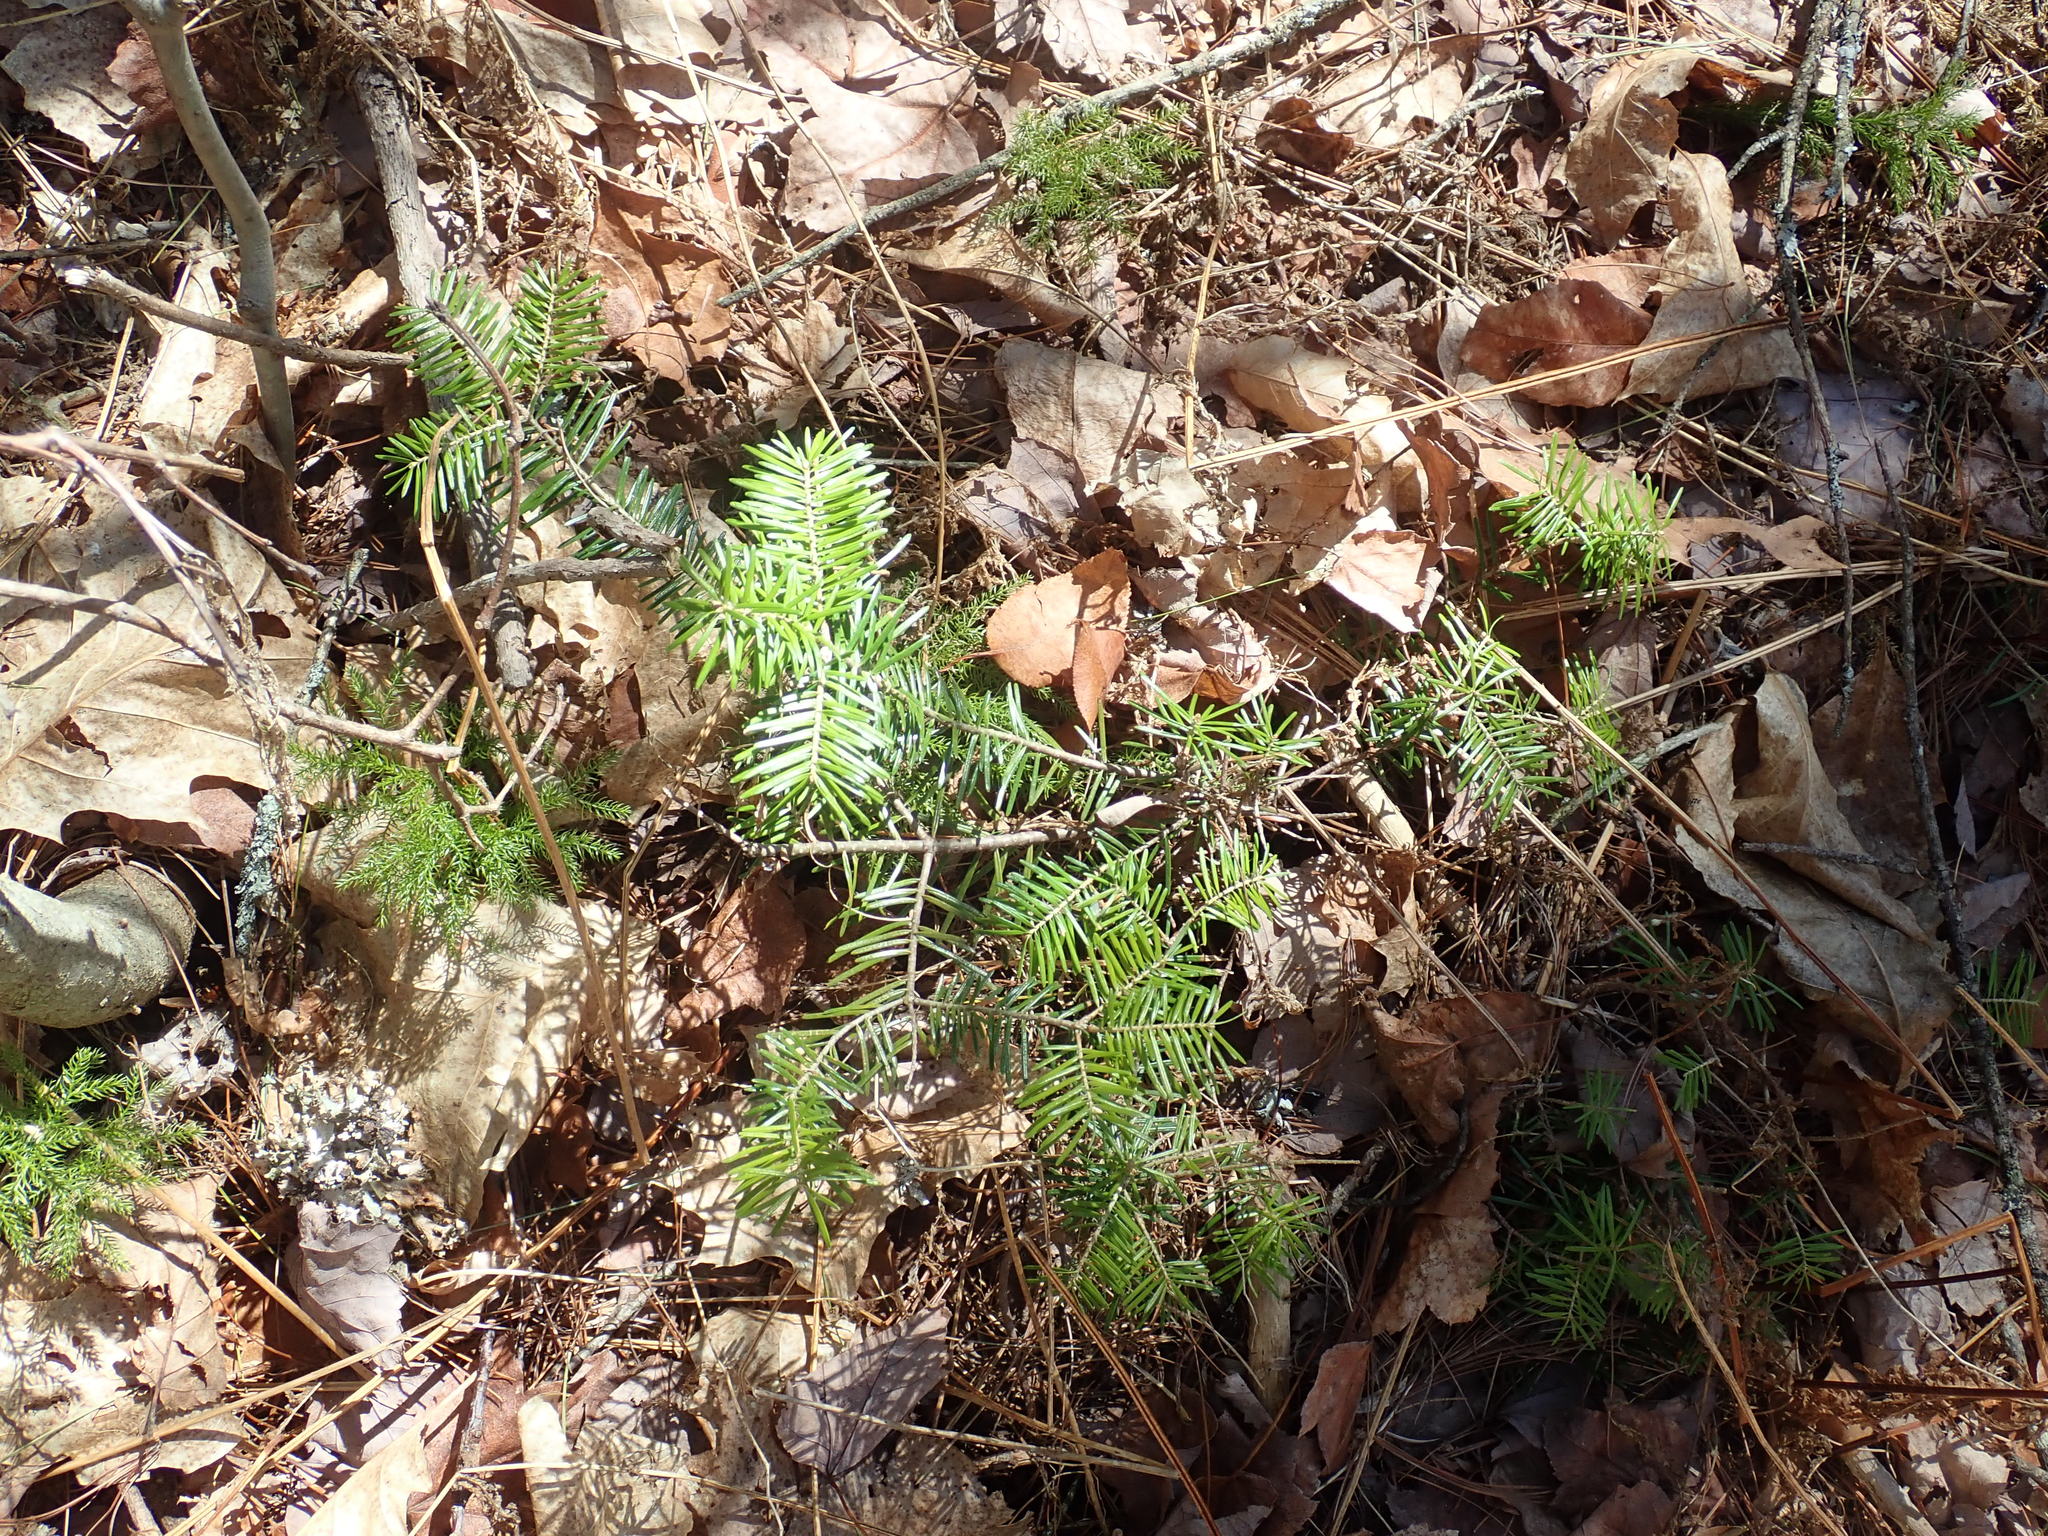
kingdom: Plantae
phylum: Tracheophyta
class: Pinopsida
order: Pinales
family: Pinaceae
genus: Abies
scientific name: Abies balsamea
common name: Balsam fir
